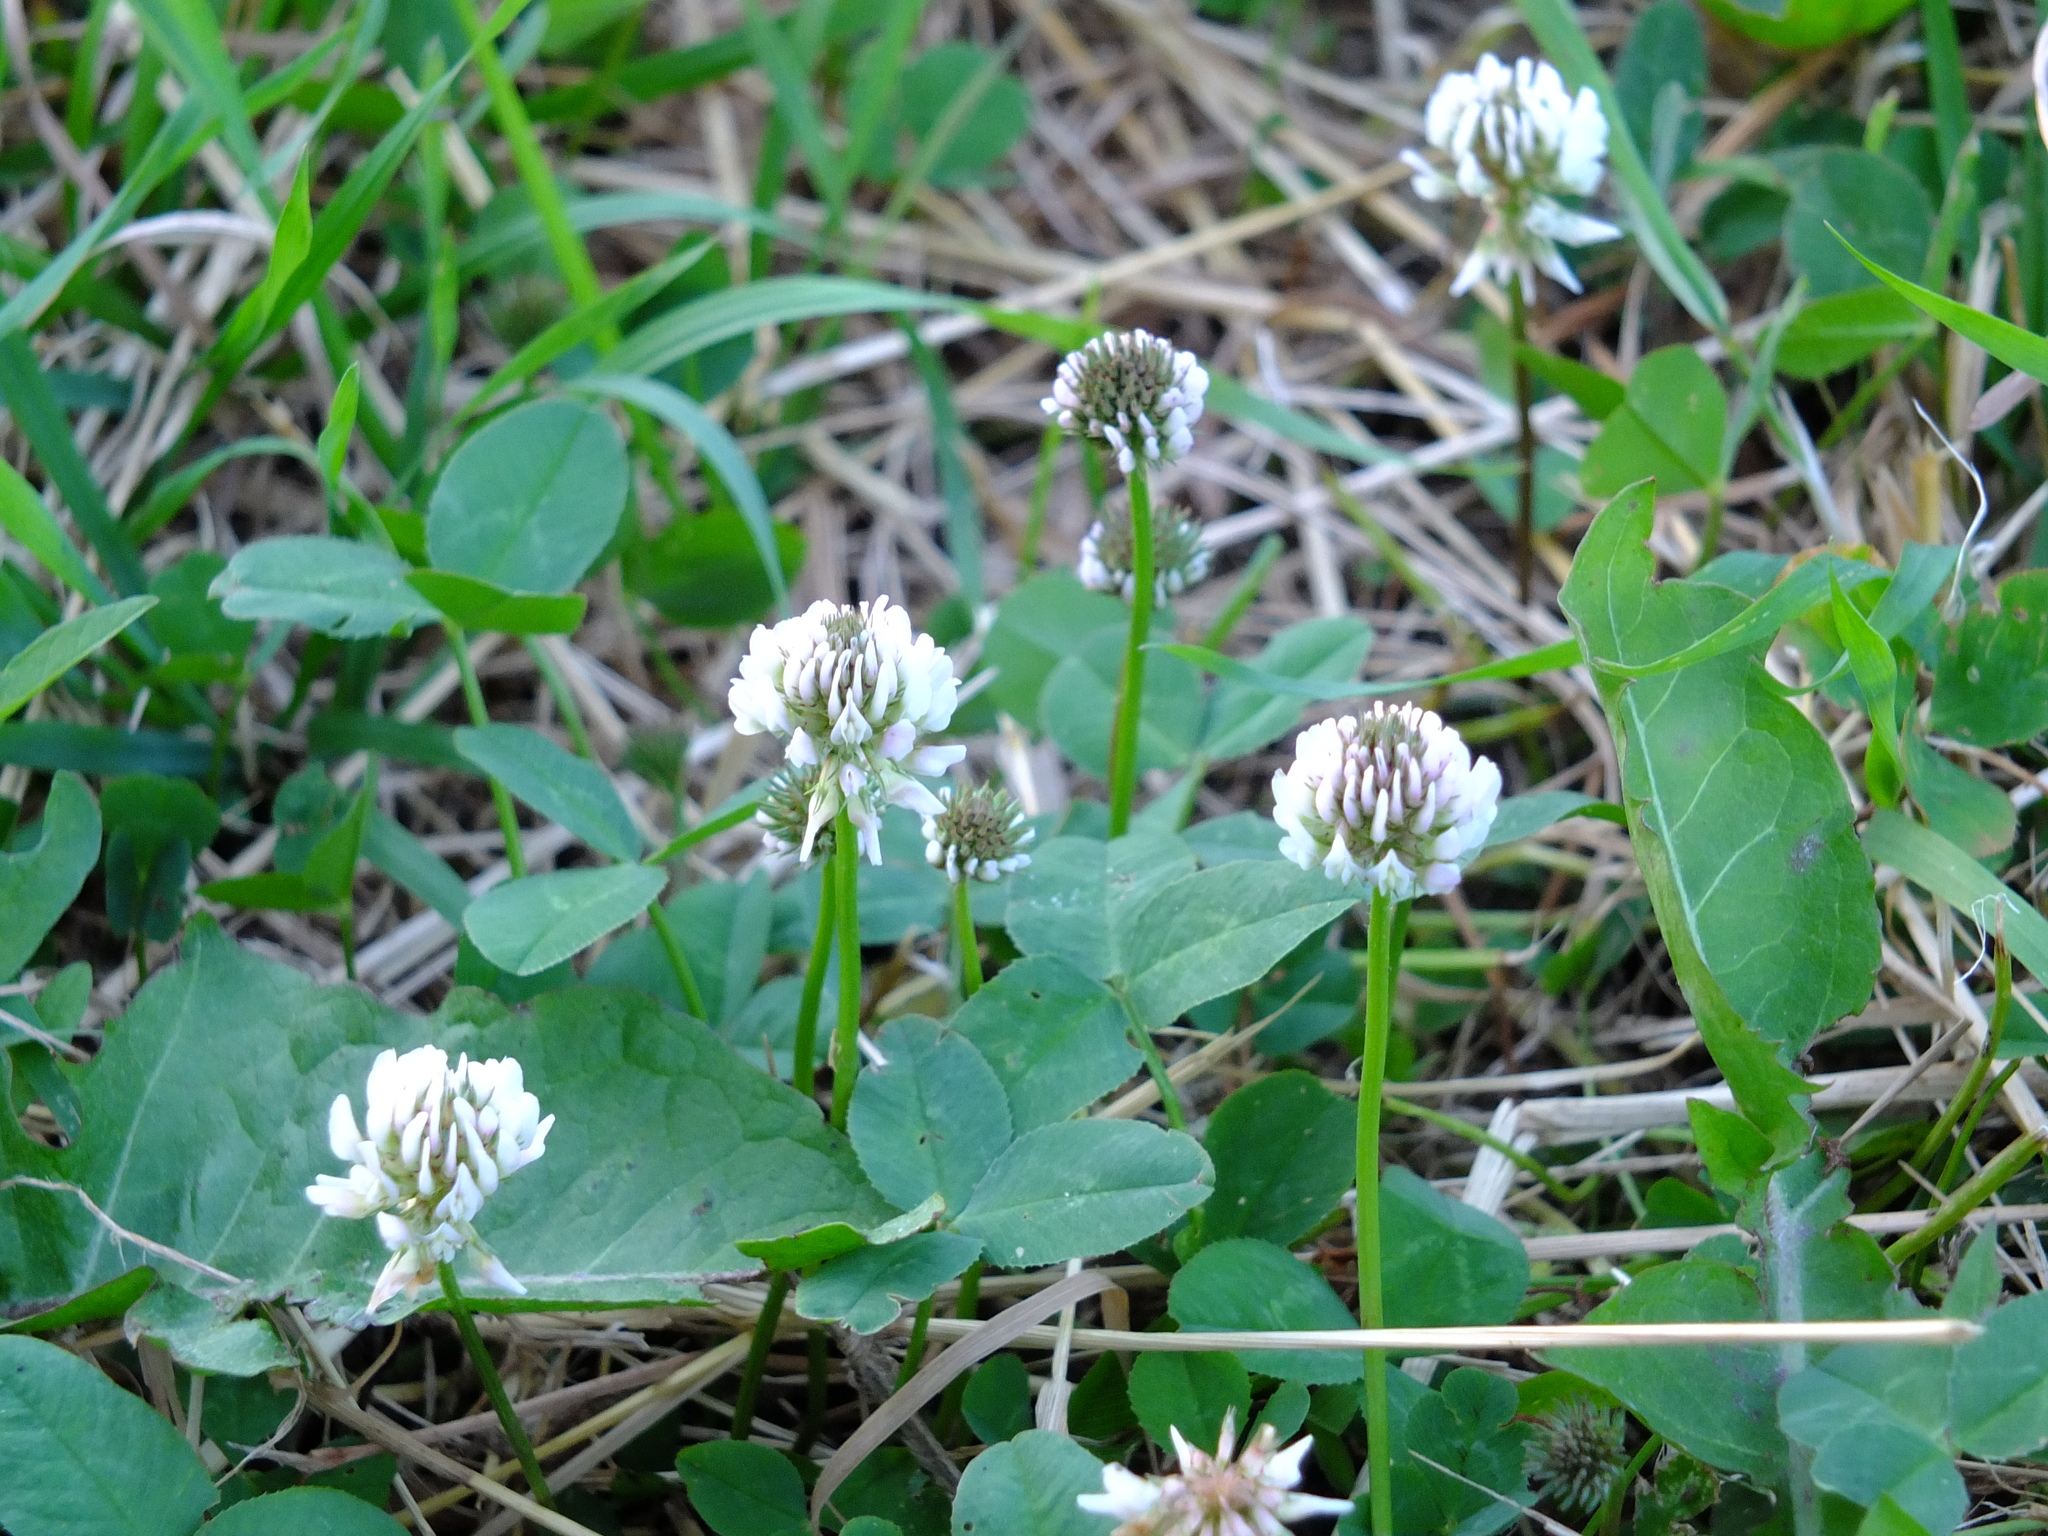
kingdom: Plantae
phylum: Tracheophyta
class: Magnoliopsida
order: Fabales
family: Fabaceae
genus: Trifolium
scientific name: Trifolium repens
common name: White clover
